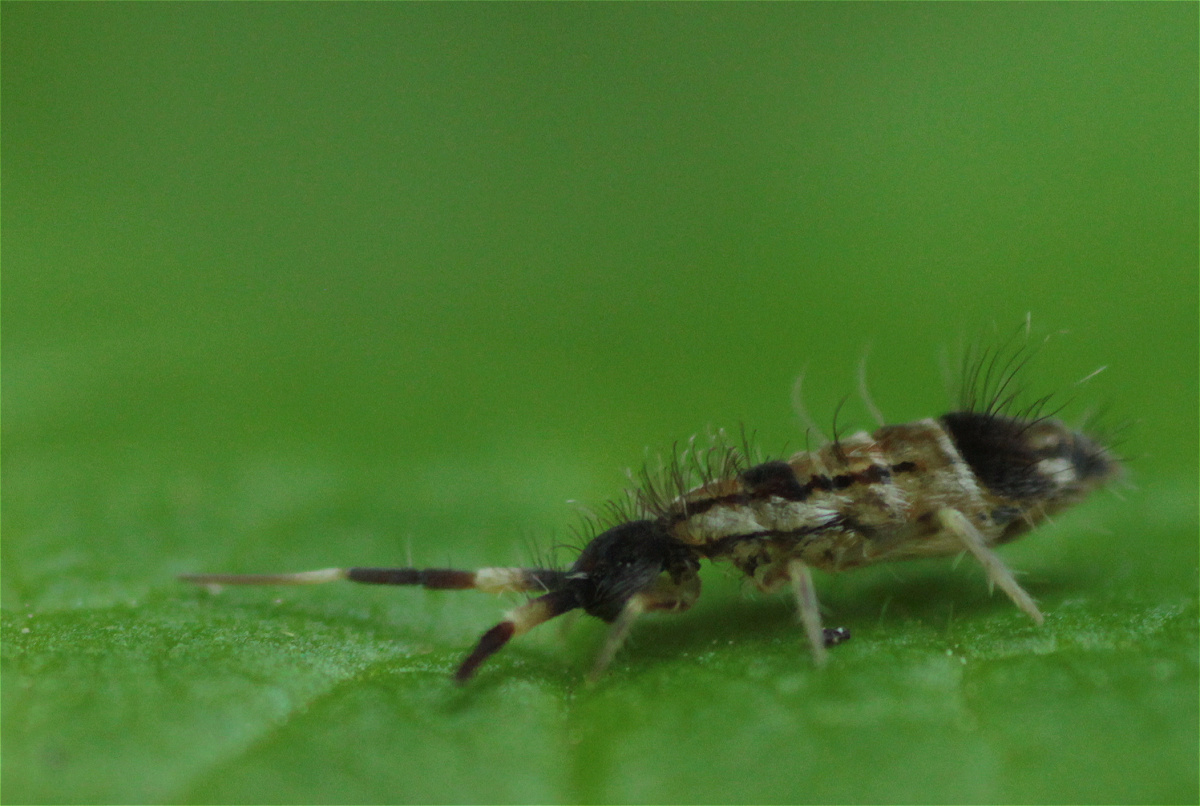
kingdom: Animalia
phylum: Arthropoda
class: Collembola
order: Entomobryomorpha
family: Entomobryidae
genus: Entomobrya
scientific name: Entomobrya nivalis
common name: Cosmopolitan springtail
